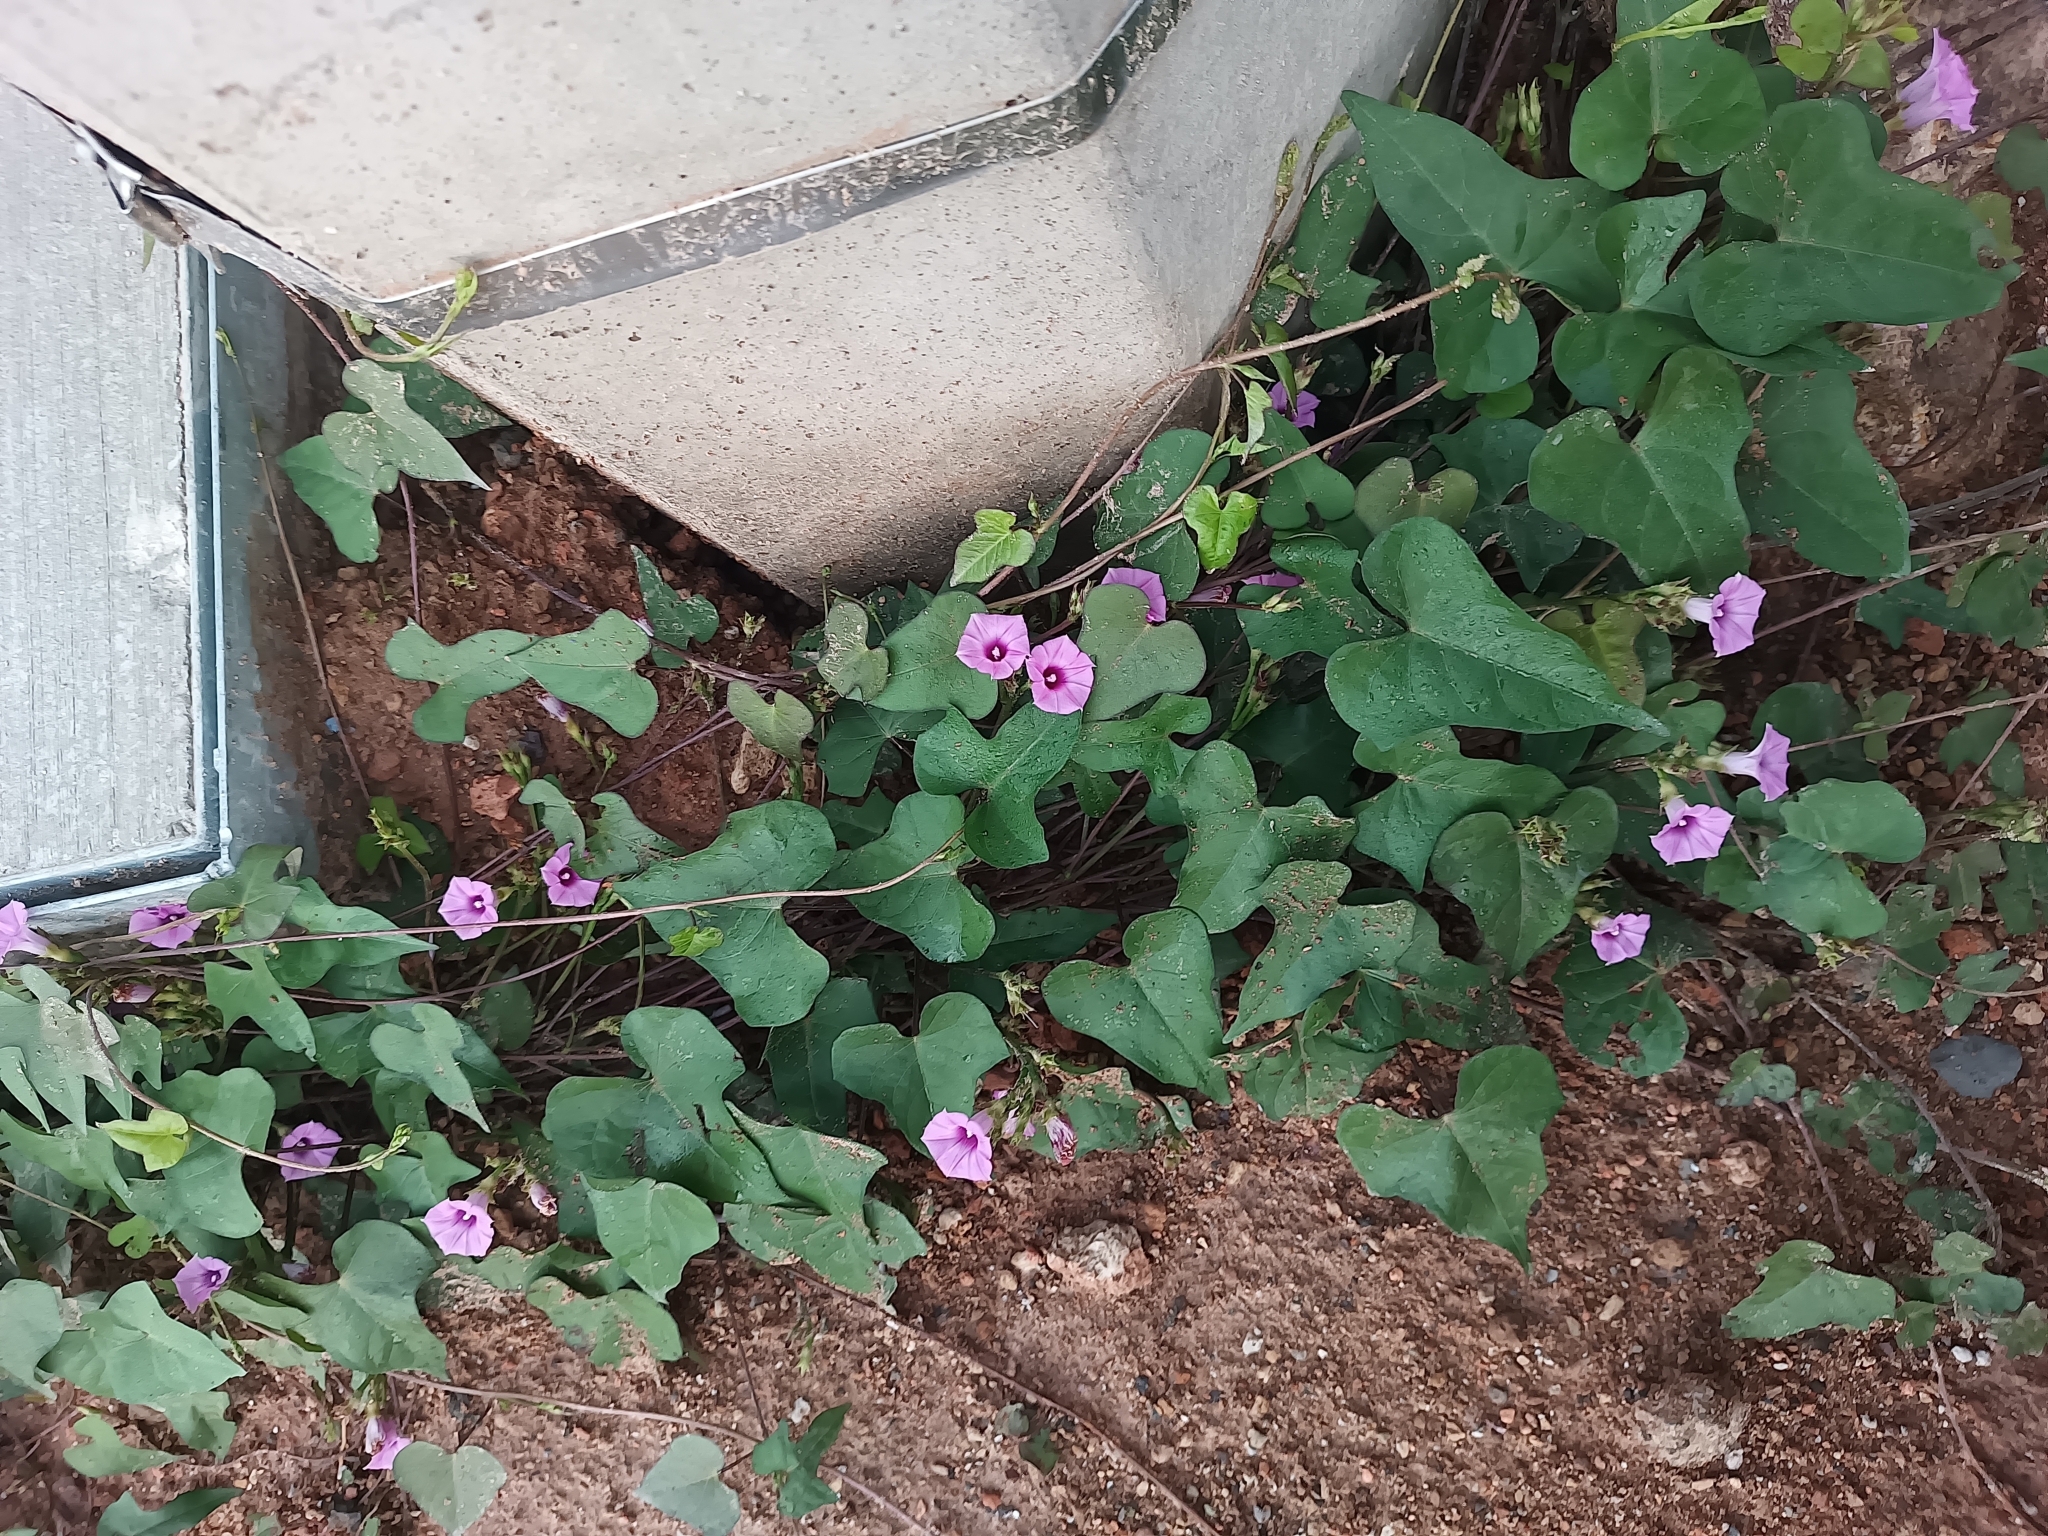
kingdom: Plantae
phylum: Tracheophyta
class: Magnoliopsida
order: Solanales
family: Convolvulaceae
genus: Ipomoea
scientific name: Ipomoea triloba
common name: Little-bell
